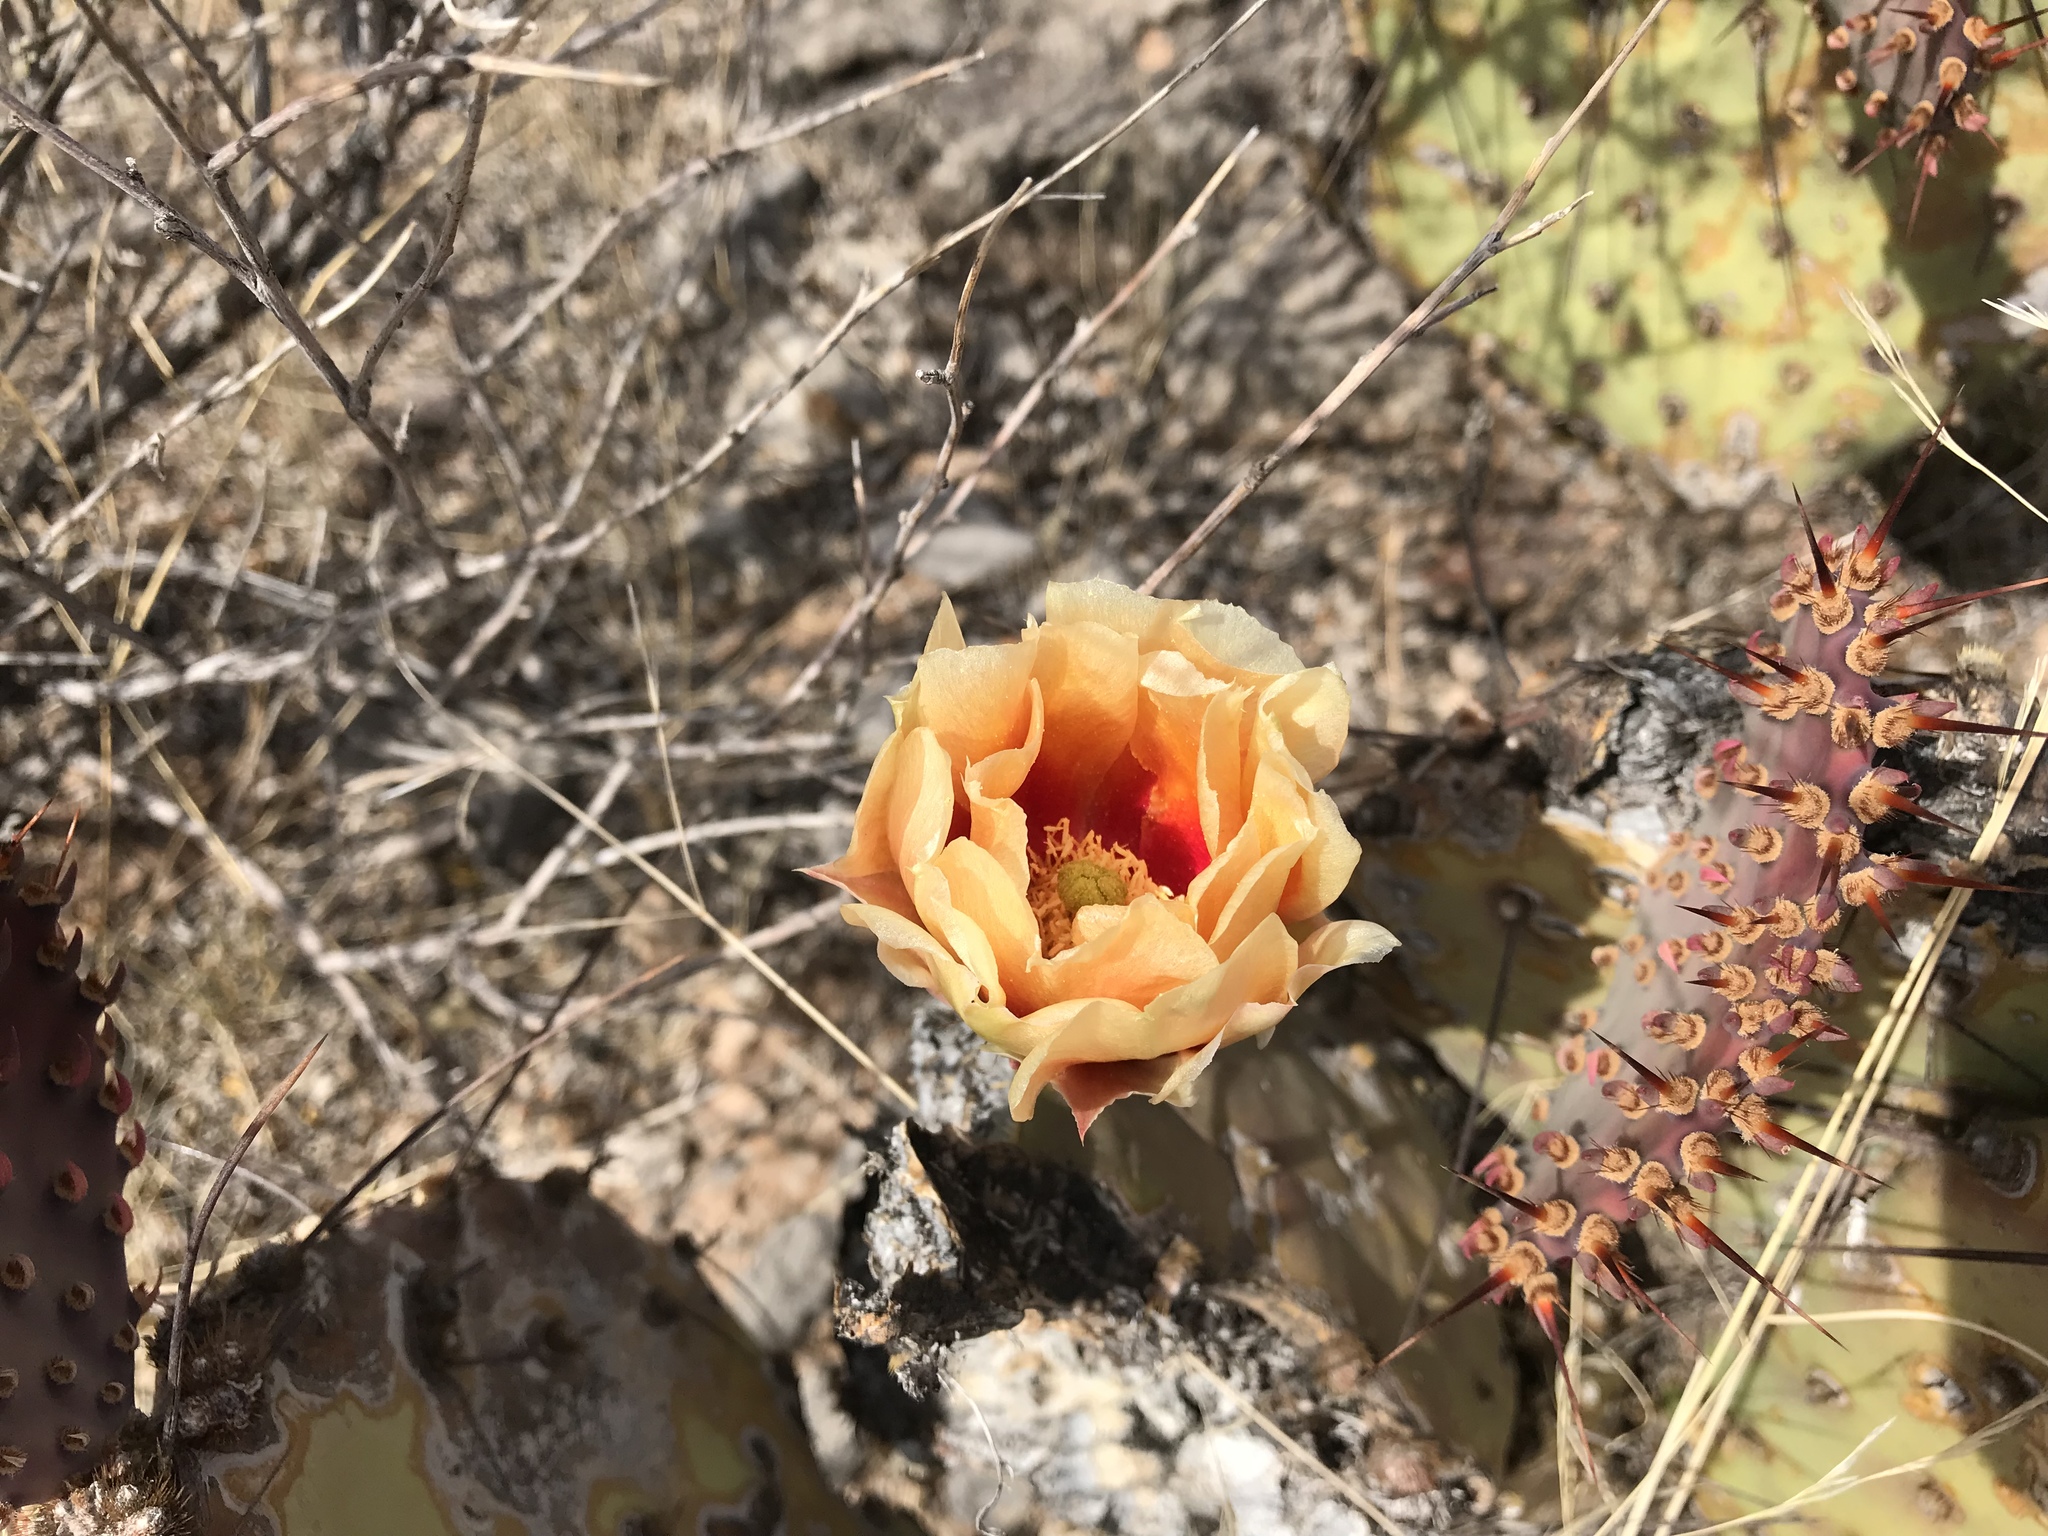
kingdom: Plantae
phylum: Tracheophyta
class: Magnoliopsida
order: Caryophyllales
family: Cactaceae
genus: Opuntia
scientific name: Opuntia macrocentra
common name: Purple prickly-pear
